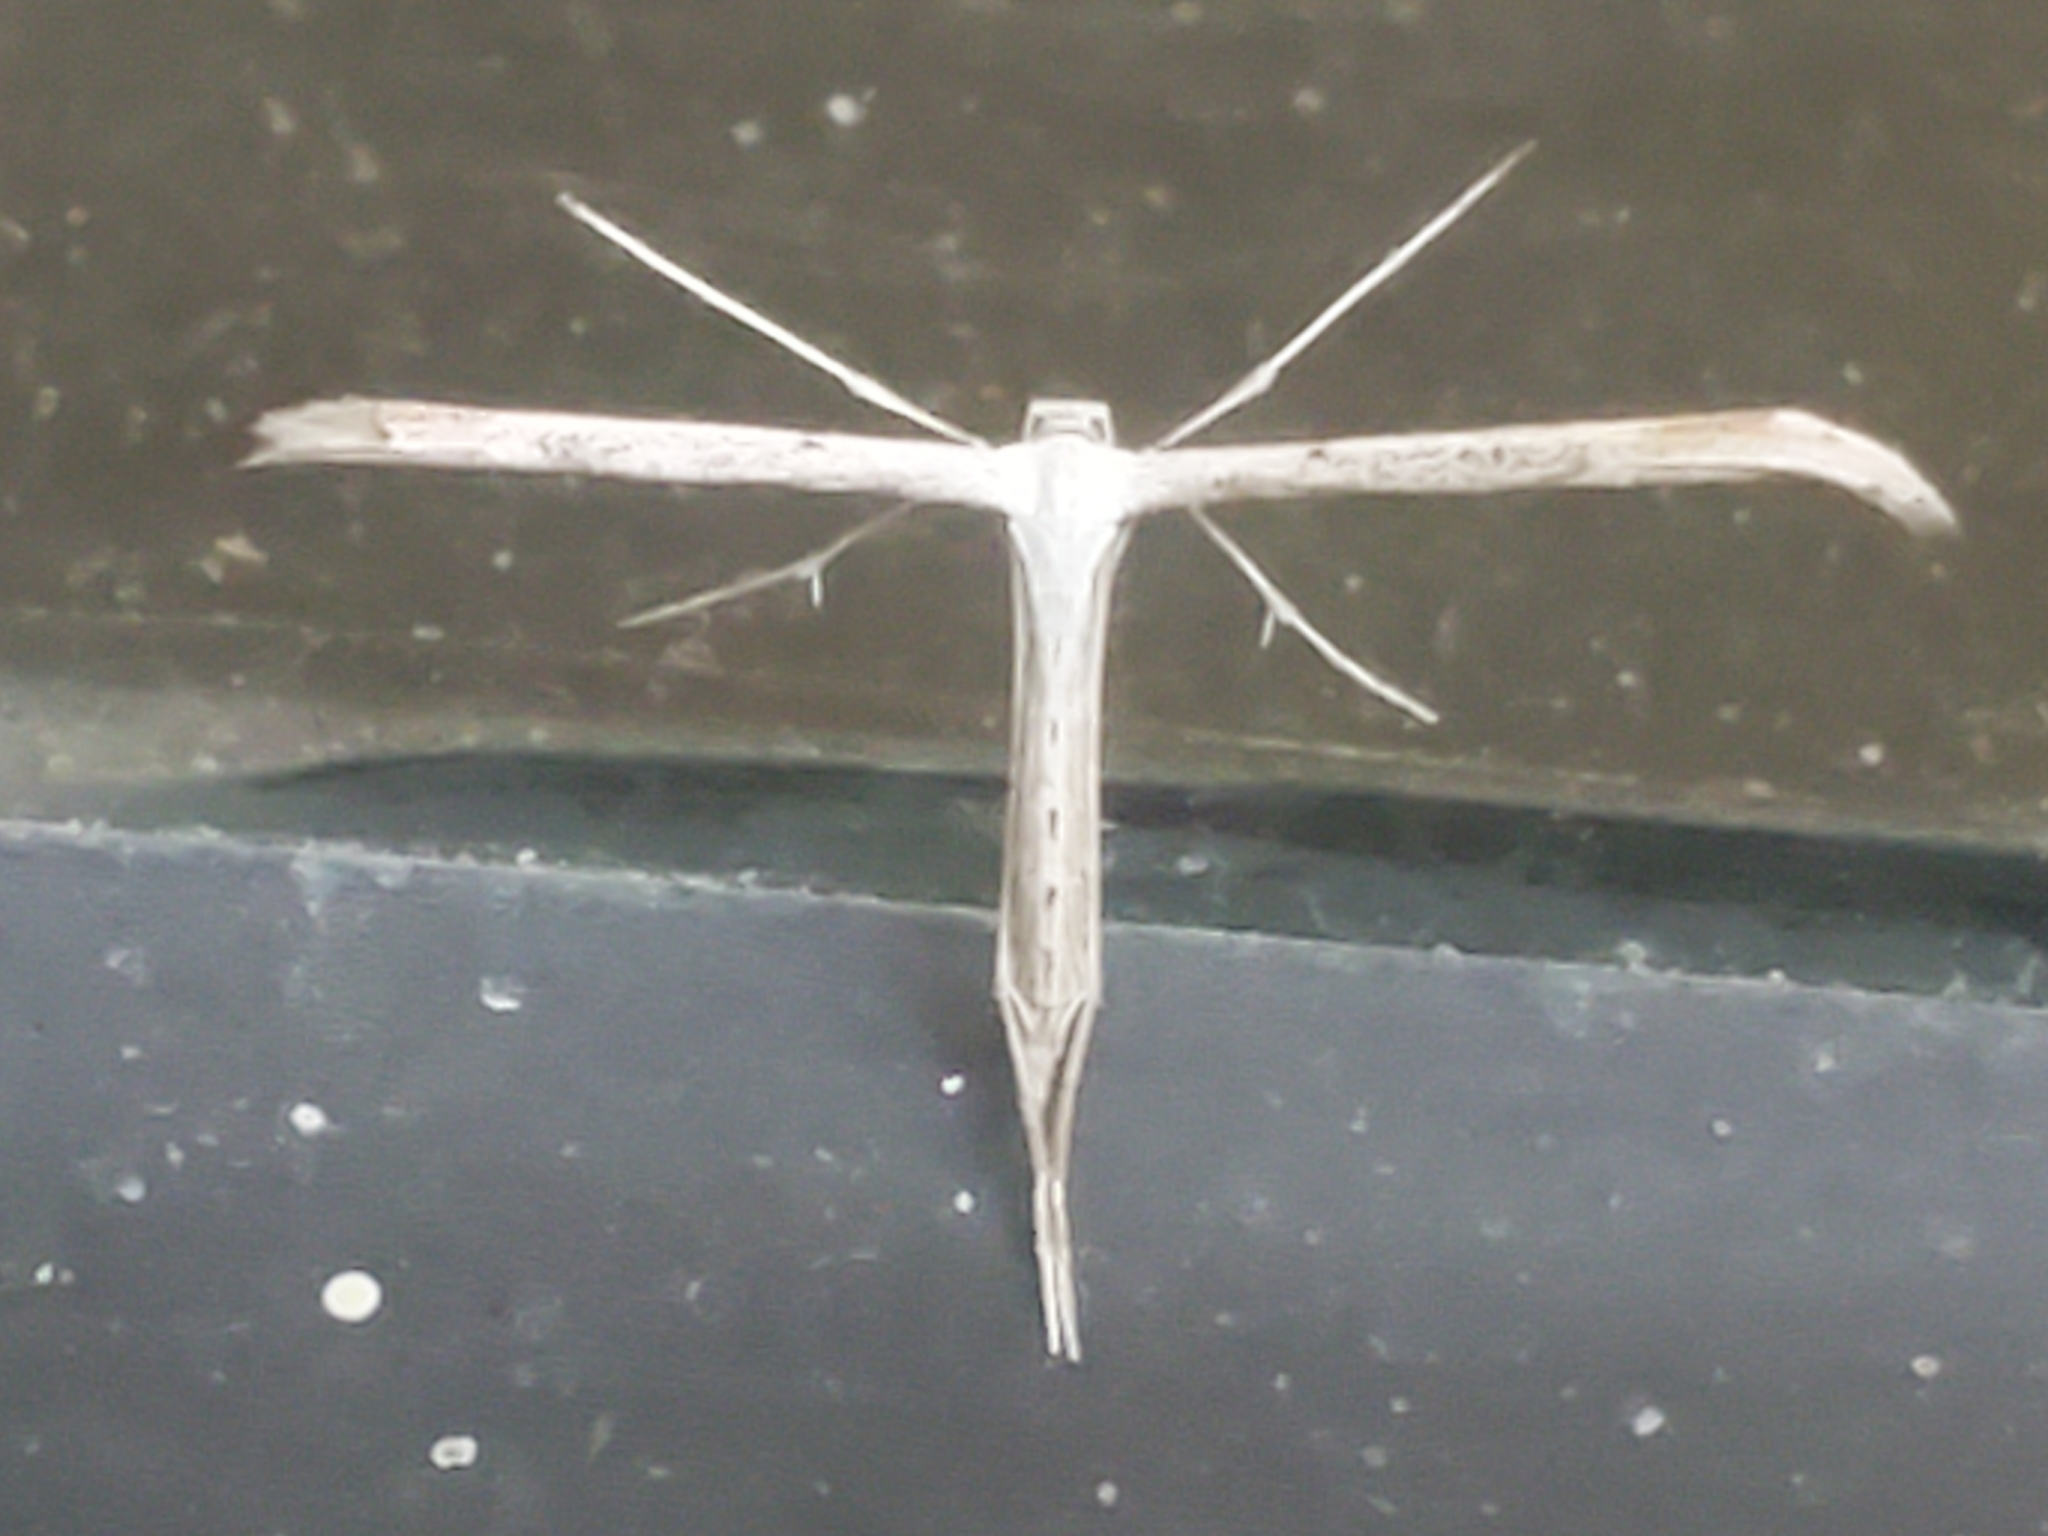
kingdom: Animalia
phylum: Arthropoda
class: Insecta
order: Lepidoptera
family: Pterophoridae
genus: Emmelina
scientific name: Emmelina monodactyla
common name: Common plume
